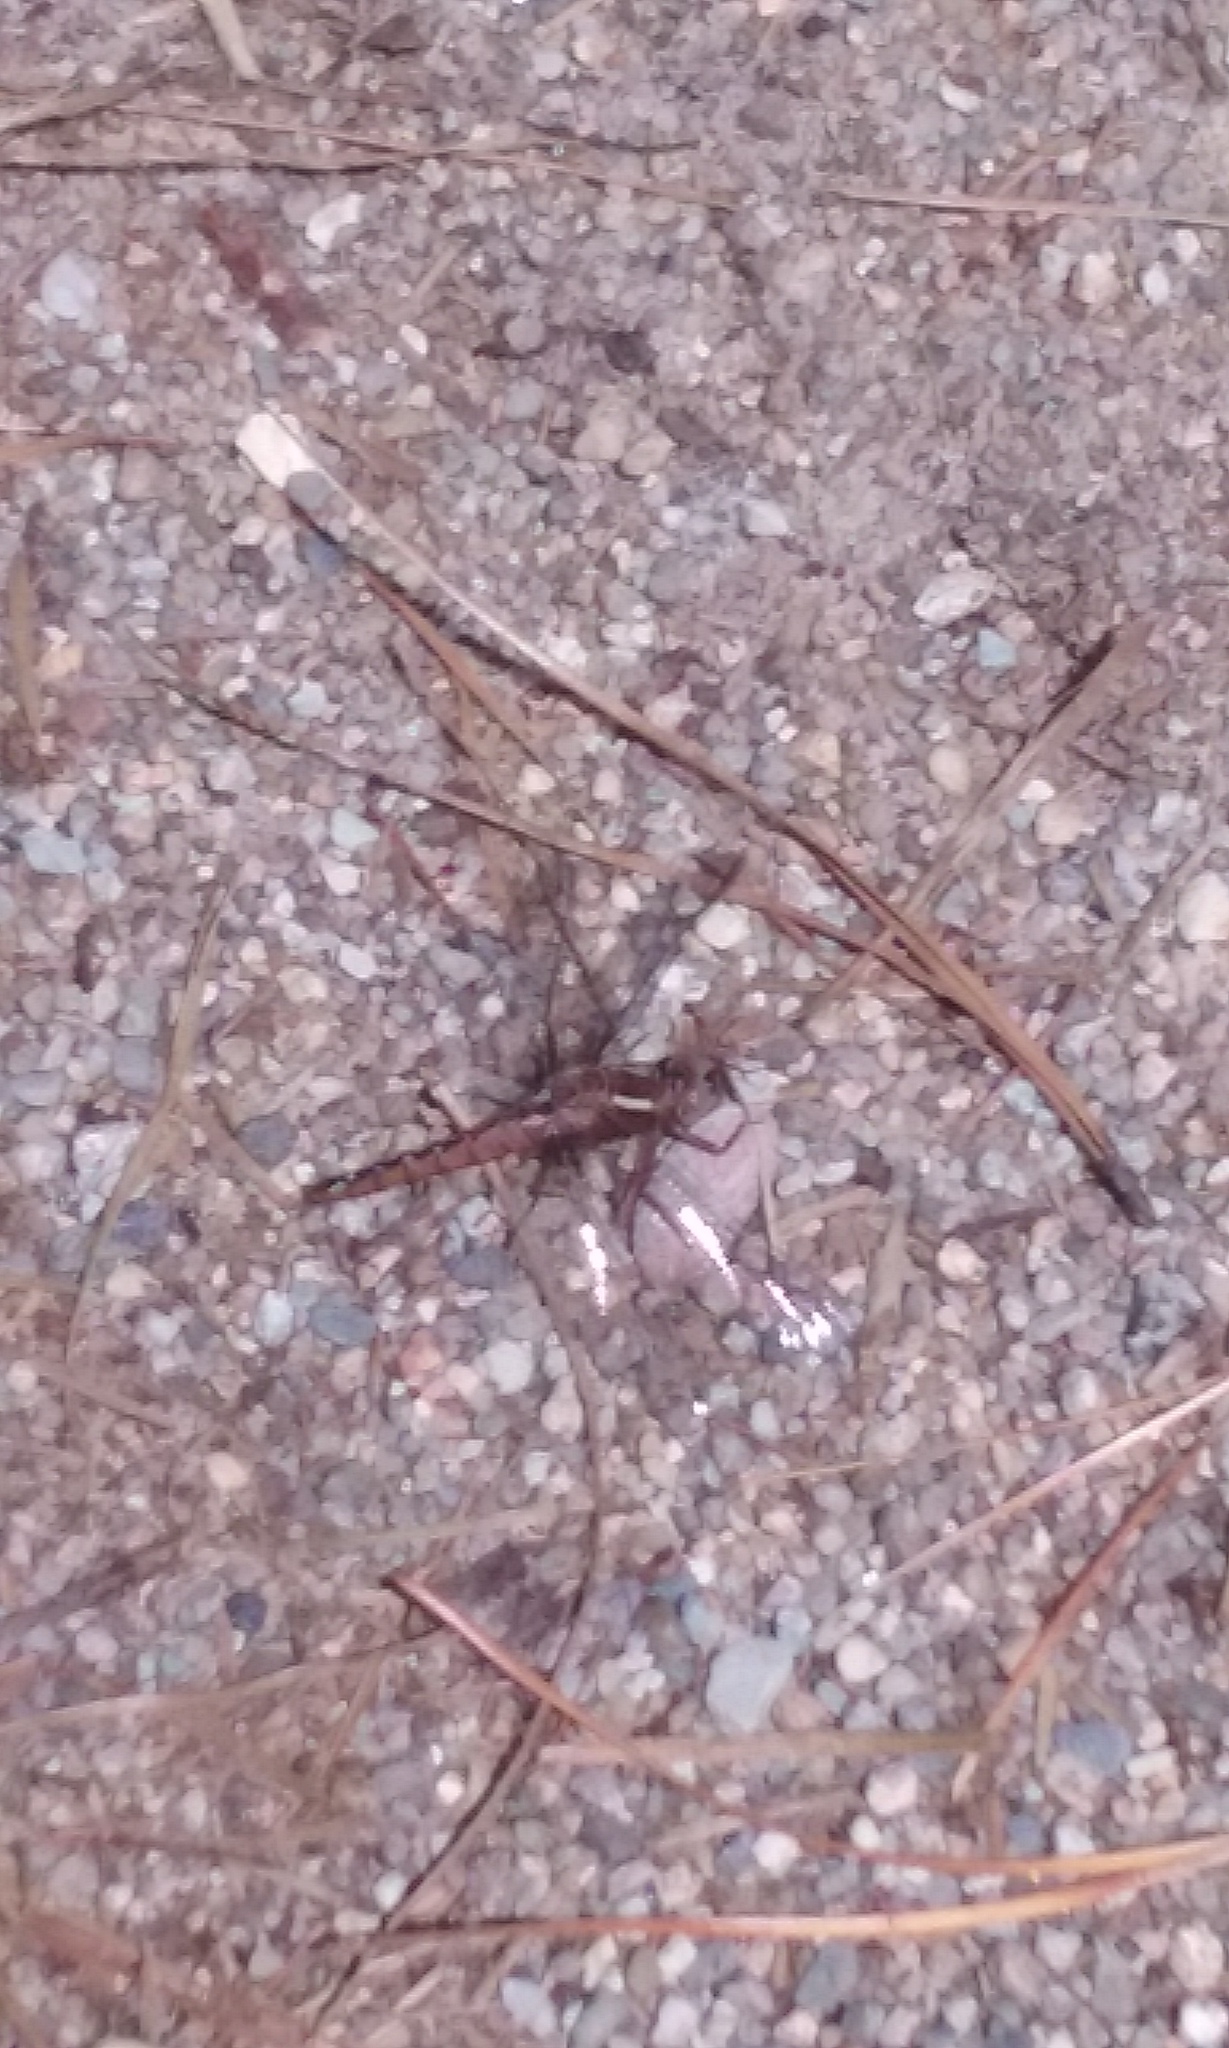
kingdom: Animalia
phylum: Arthropoda
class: Insecta
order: Odonata
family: Libellulidae
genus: Ladona
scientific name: Ladona deplanata
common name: Blue corporal
